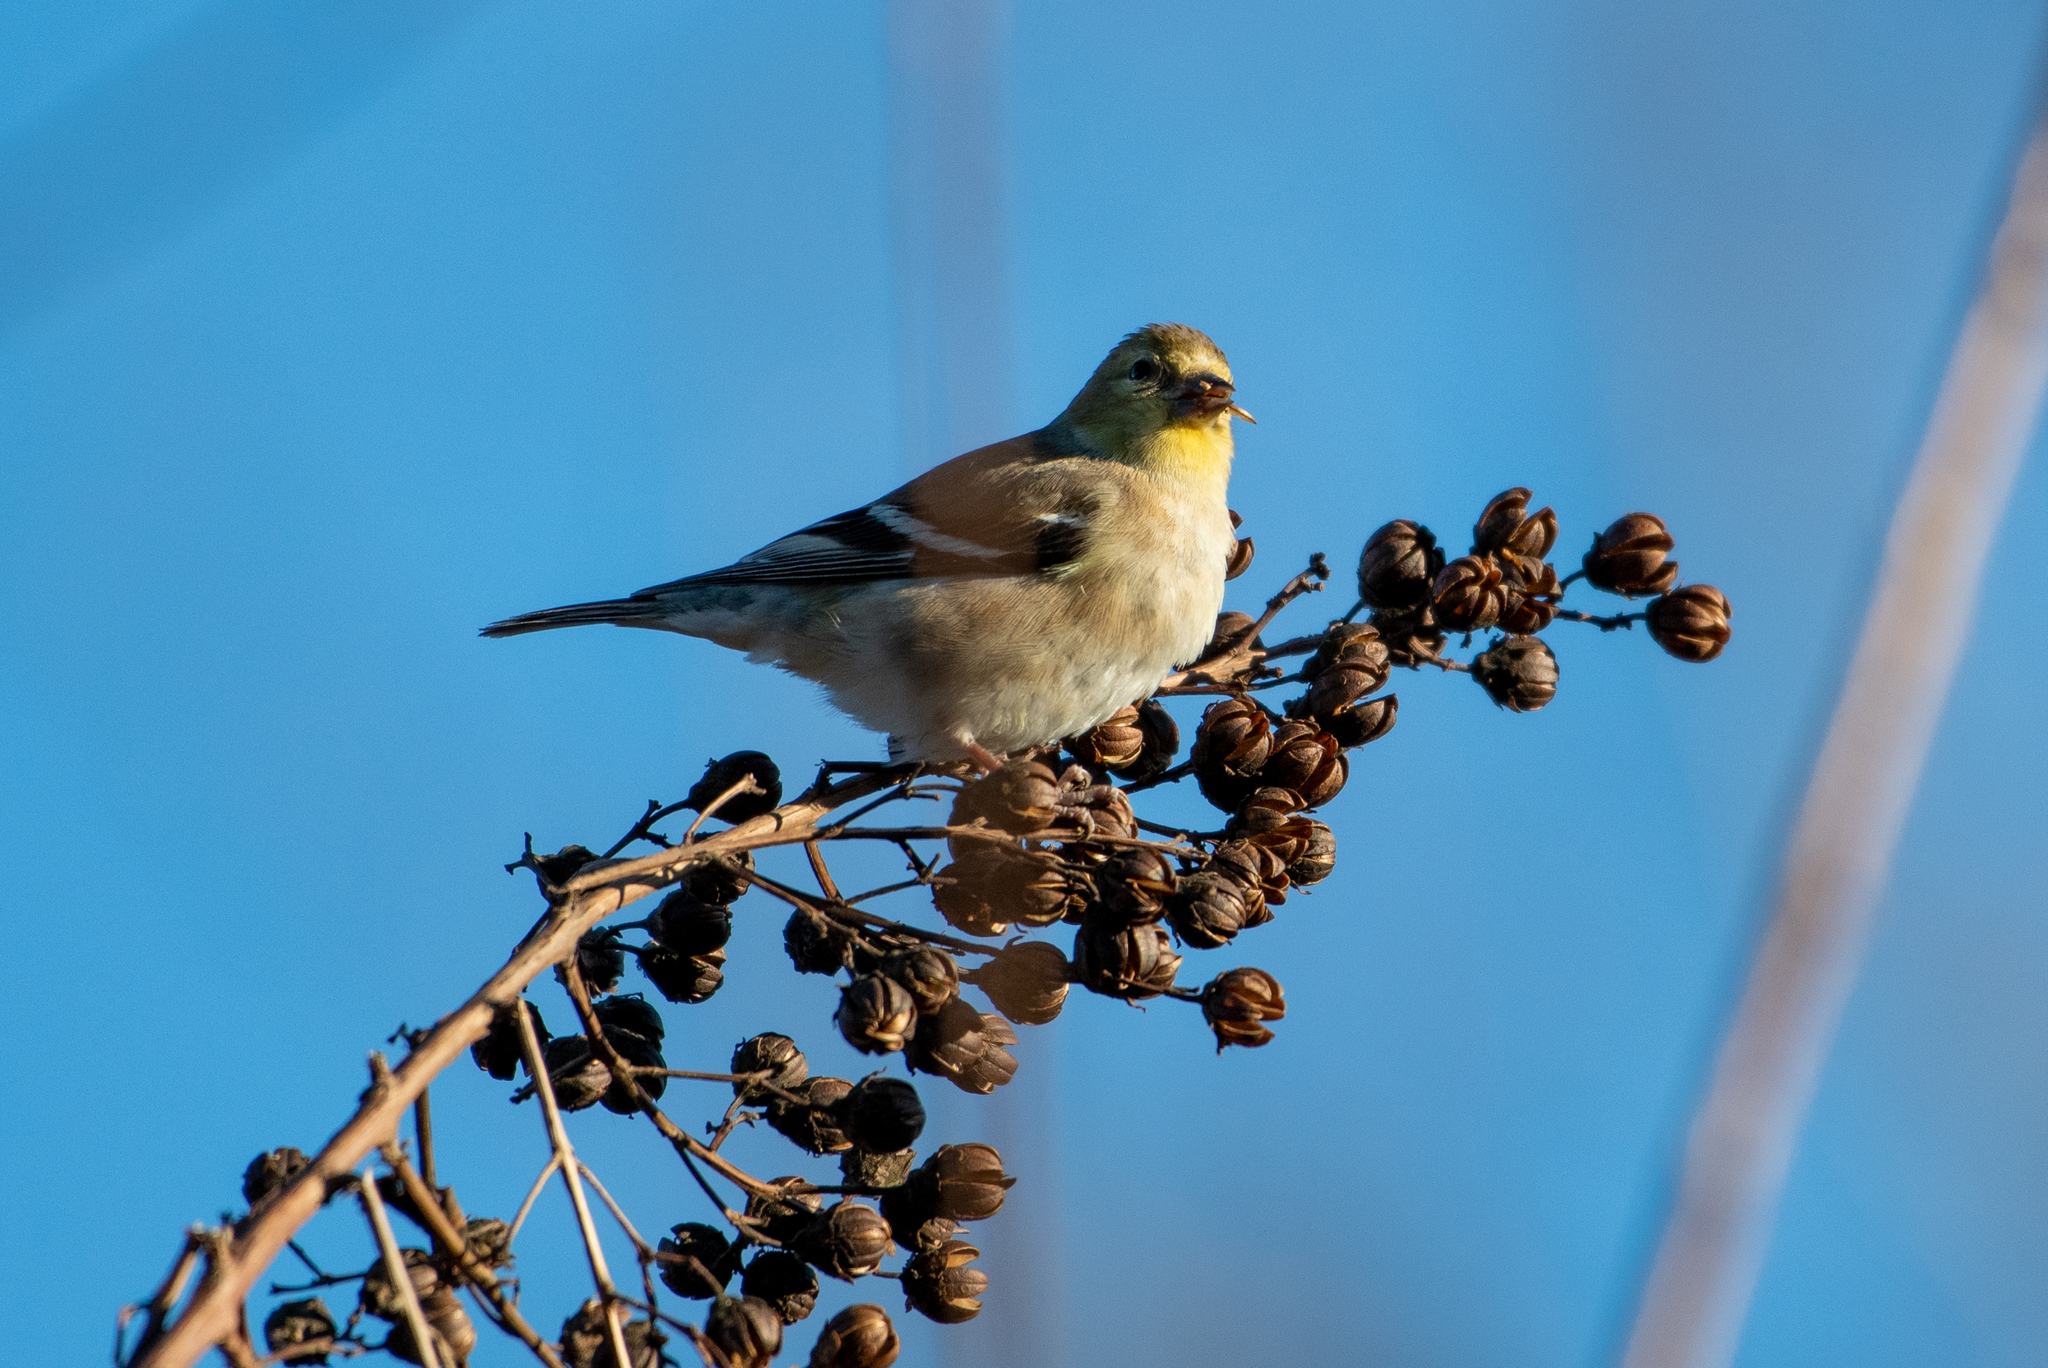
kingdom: Animalia
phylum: Chordata
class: Aves
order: Passeriformes
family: Fringillidae
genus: Spinus
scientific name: Spinus tristis
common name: American goldfinch
